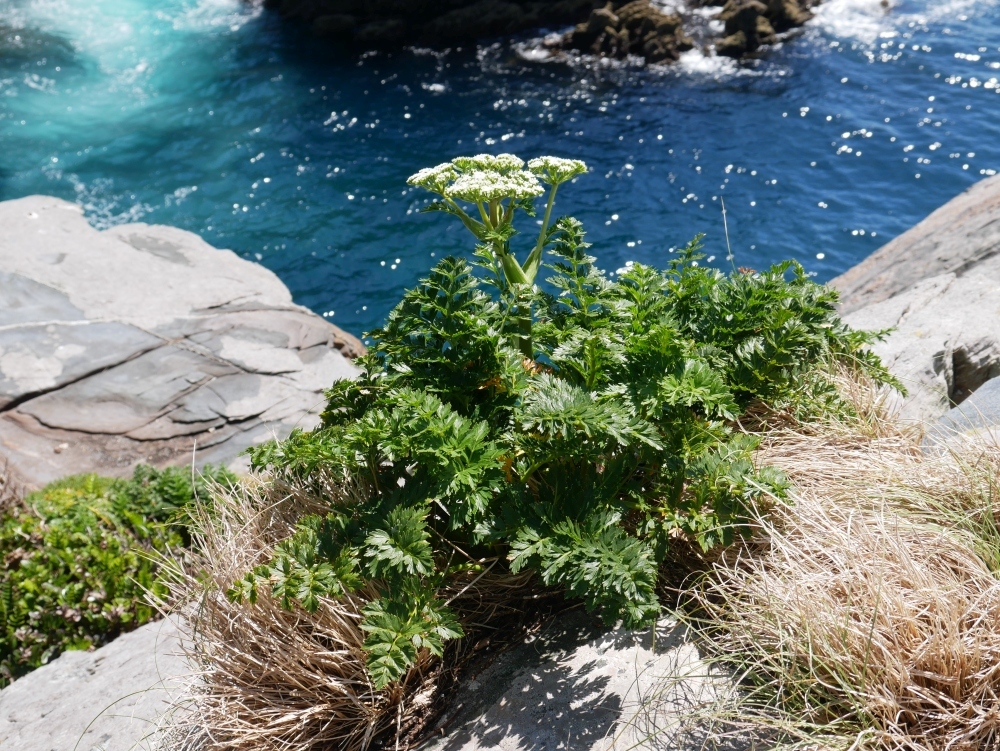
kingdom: Plantae
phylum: Tracheophyta
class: Magnoliopsida
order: Apiales
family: Apiaceae
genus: Anisotome
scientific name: Anisotome lyallii
